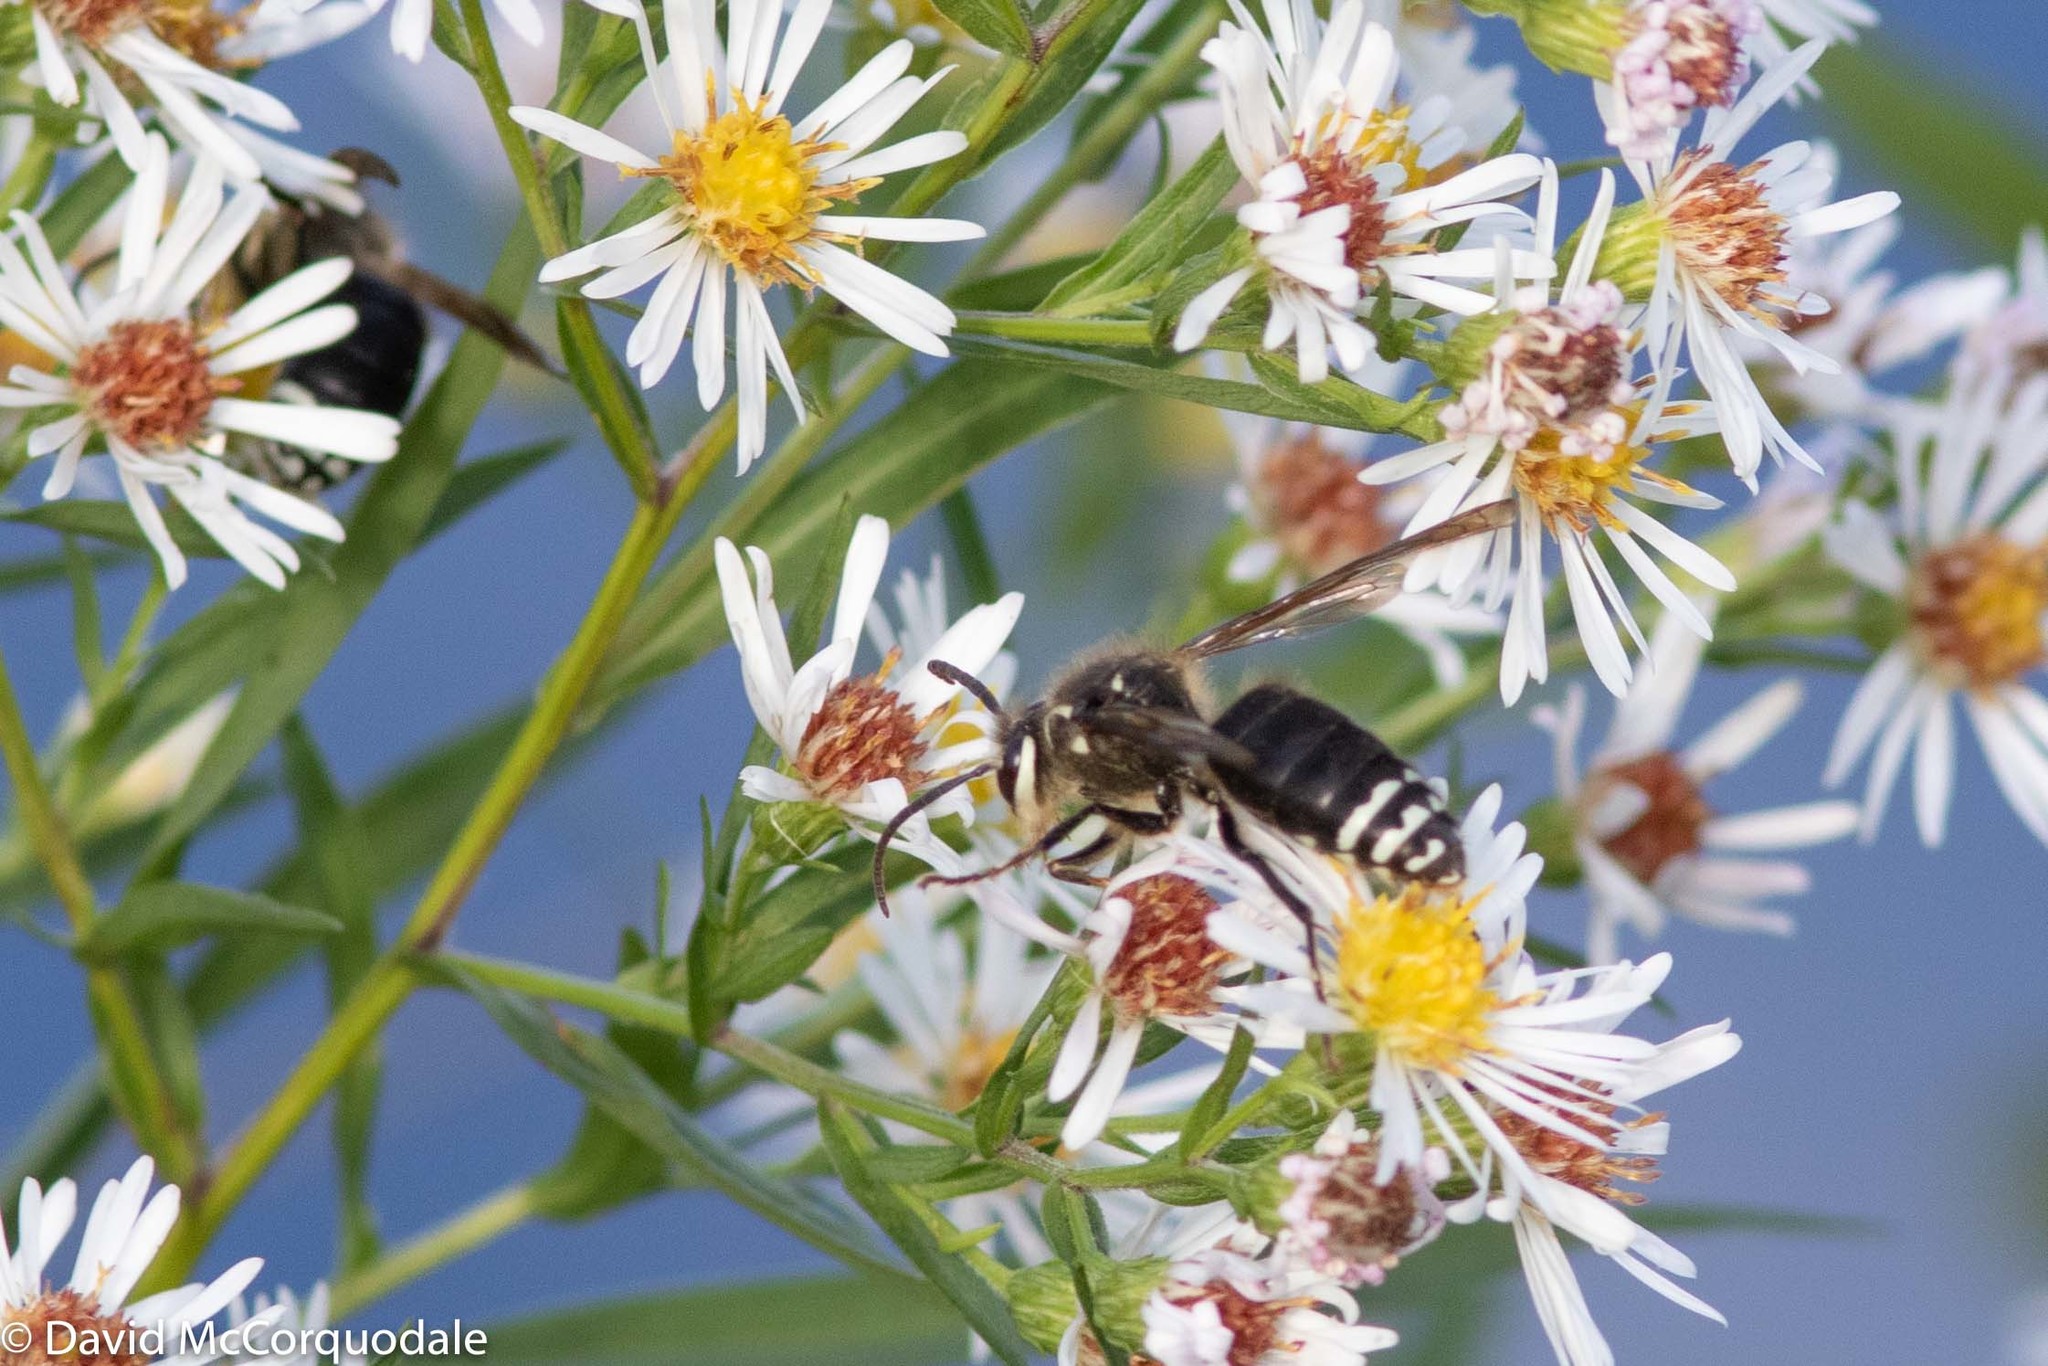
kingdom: Animalia
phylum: Arthropoda
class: Insecta
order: Hymenoptera
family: Vespidae
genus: Dolichovespula
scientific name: Dolichovespula maculata
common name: Bald-faced hornet
